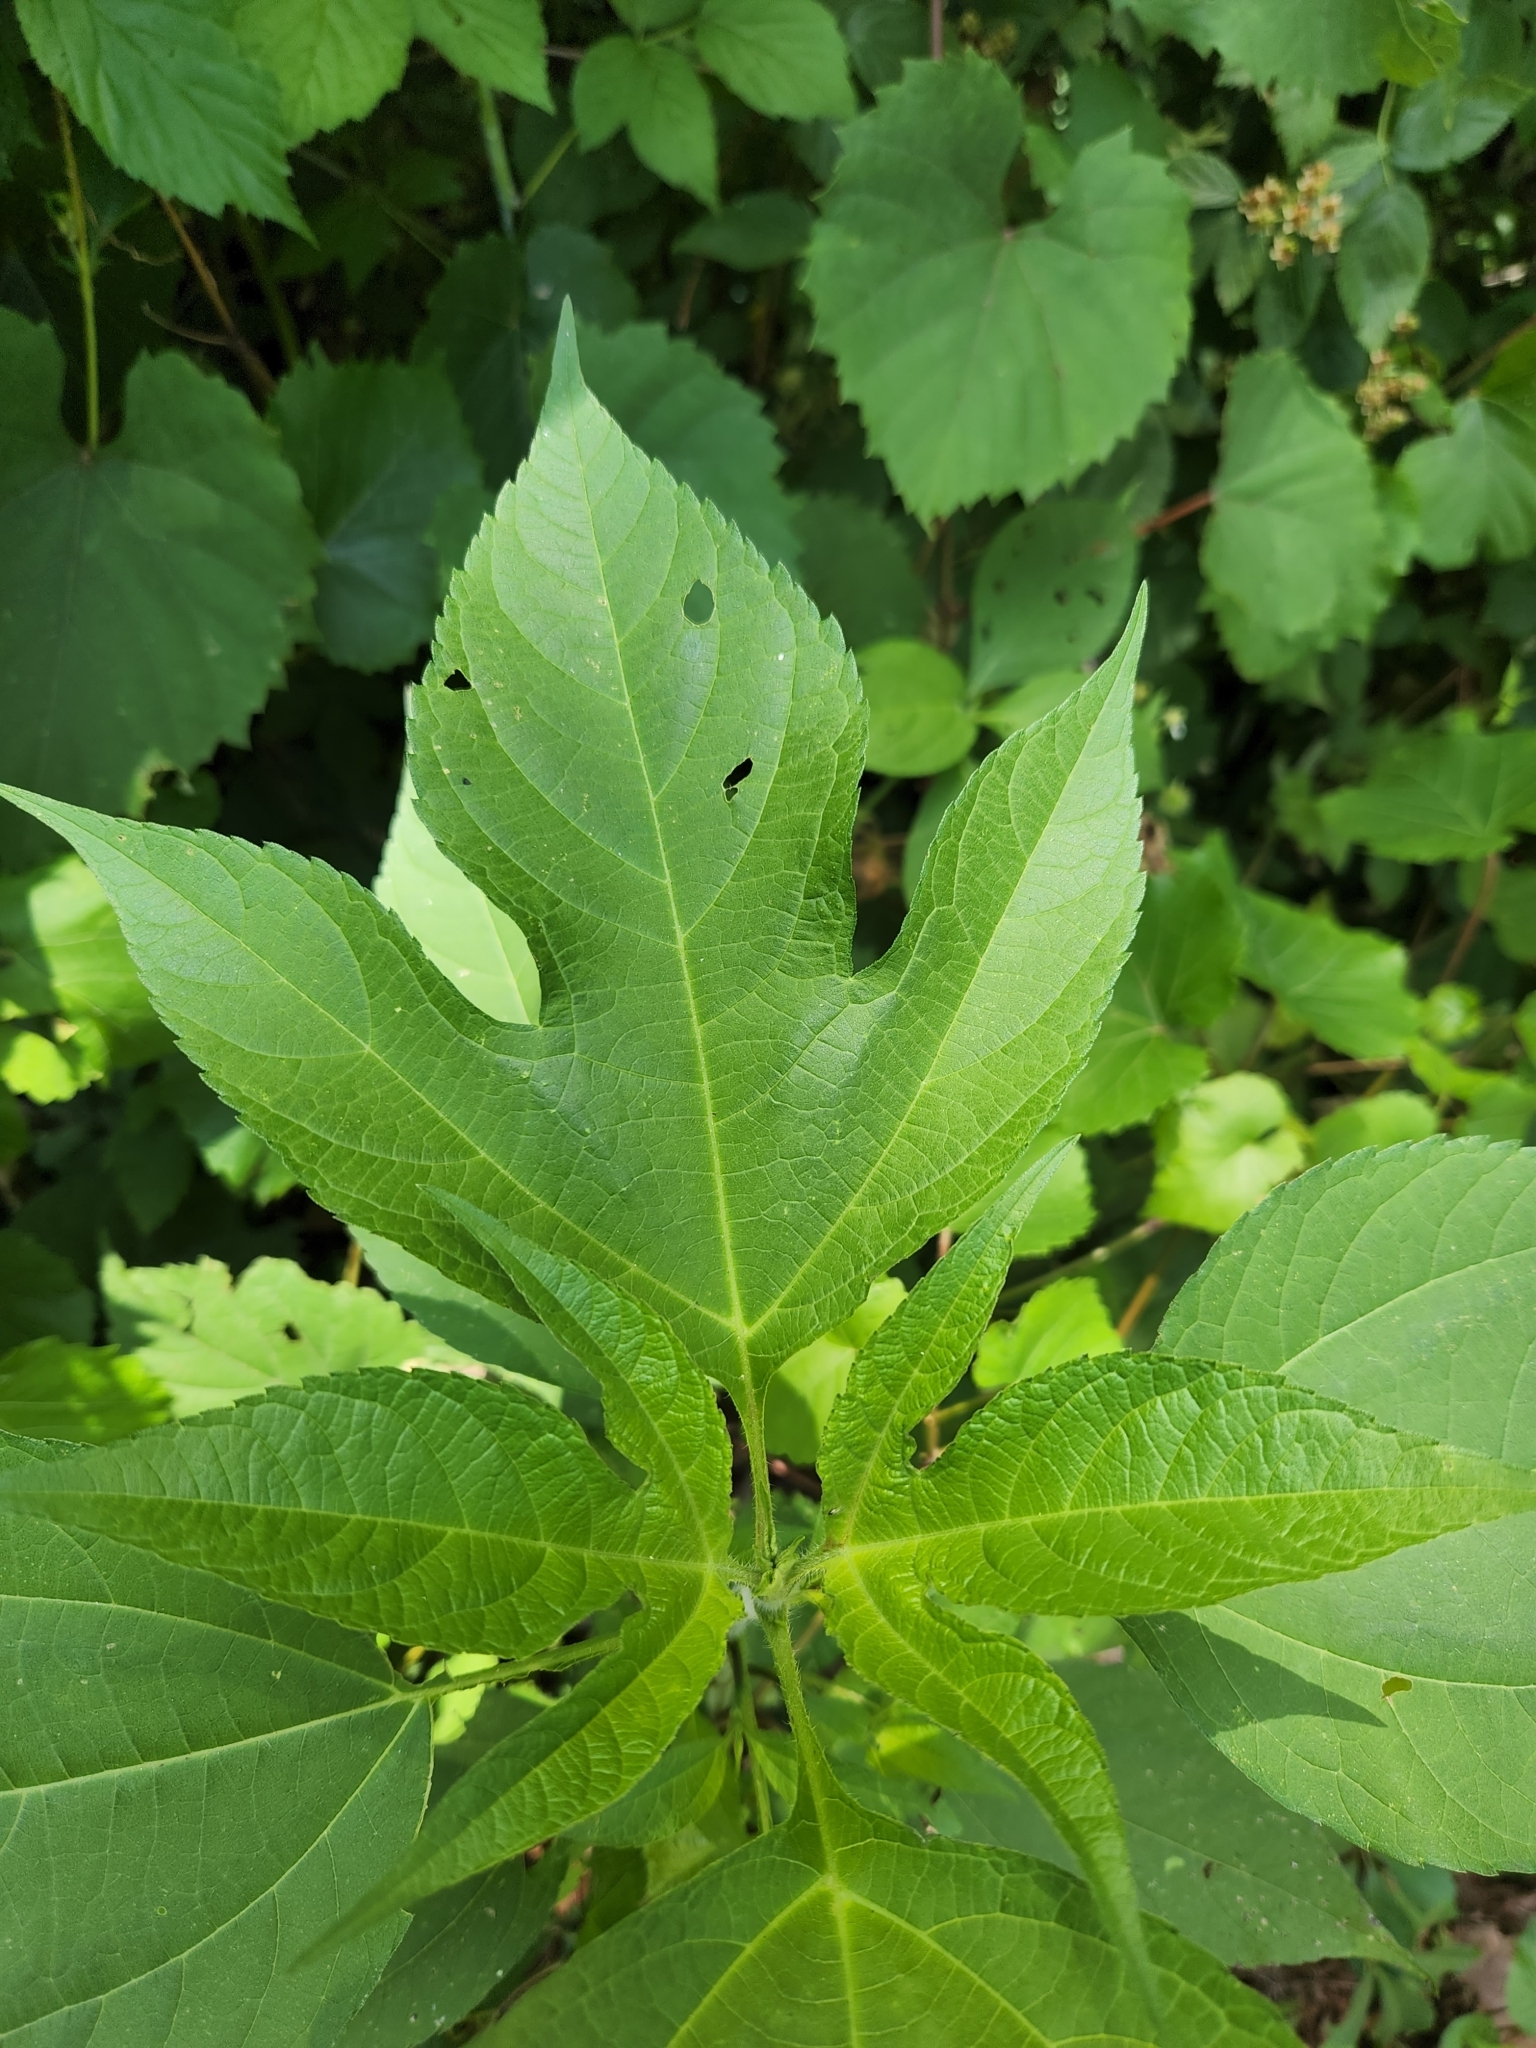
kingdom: Plantae
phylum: Tracheophyta
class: Magnoliopsida
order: Asterales
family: Asteraceae
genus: Ambrosia
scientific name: Ambrosia trifida
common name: Giant ragweed
